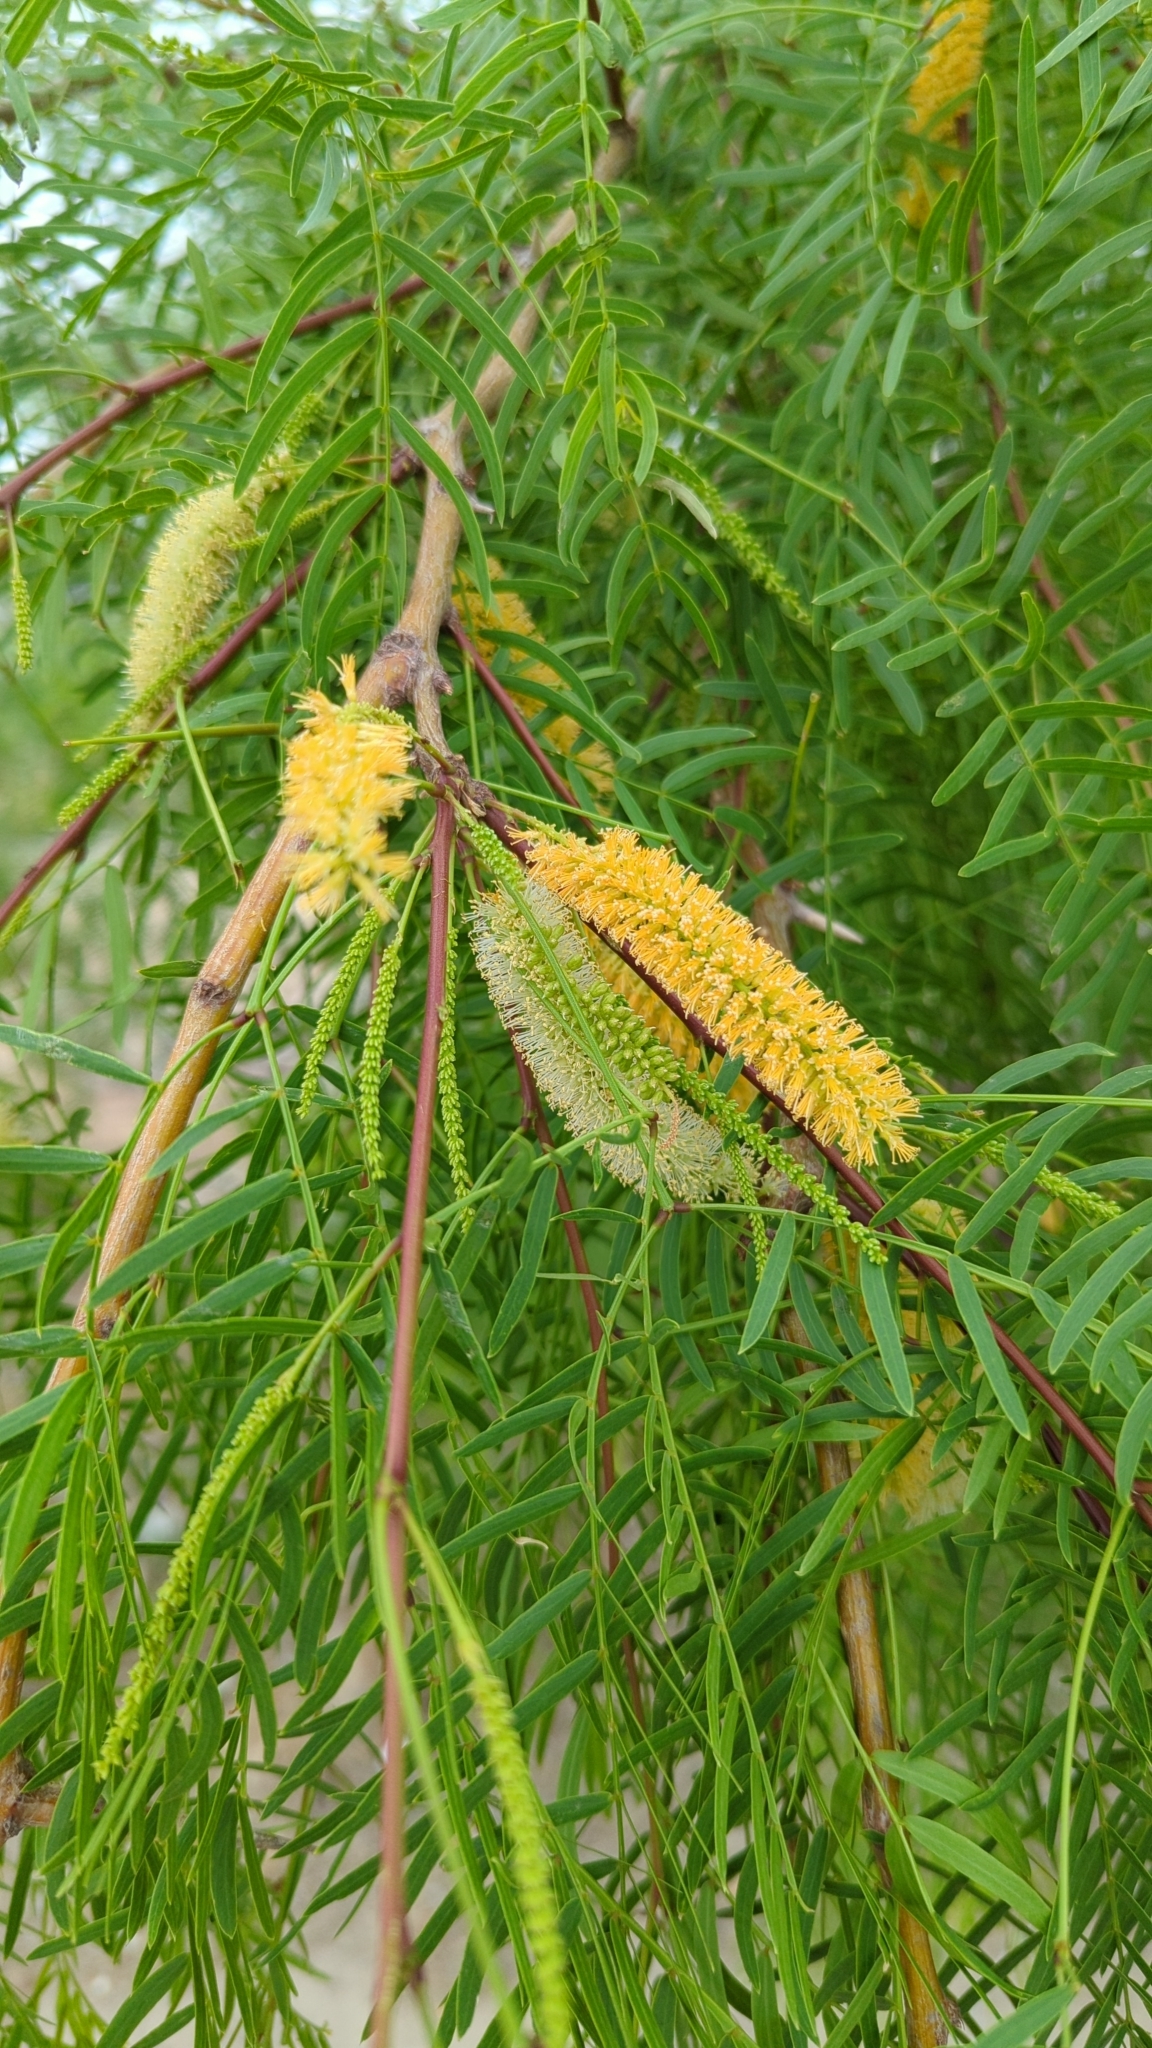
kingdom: Plantae
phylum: Tracheophyta
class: Magnoliopsida
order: Fabales
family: Fabaceae
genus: Prosopis
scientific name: Prosopis glandulosa
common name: Honey mesquite
